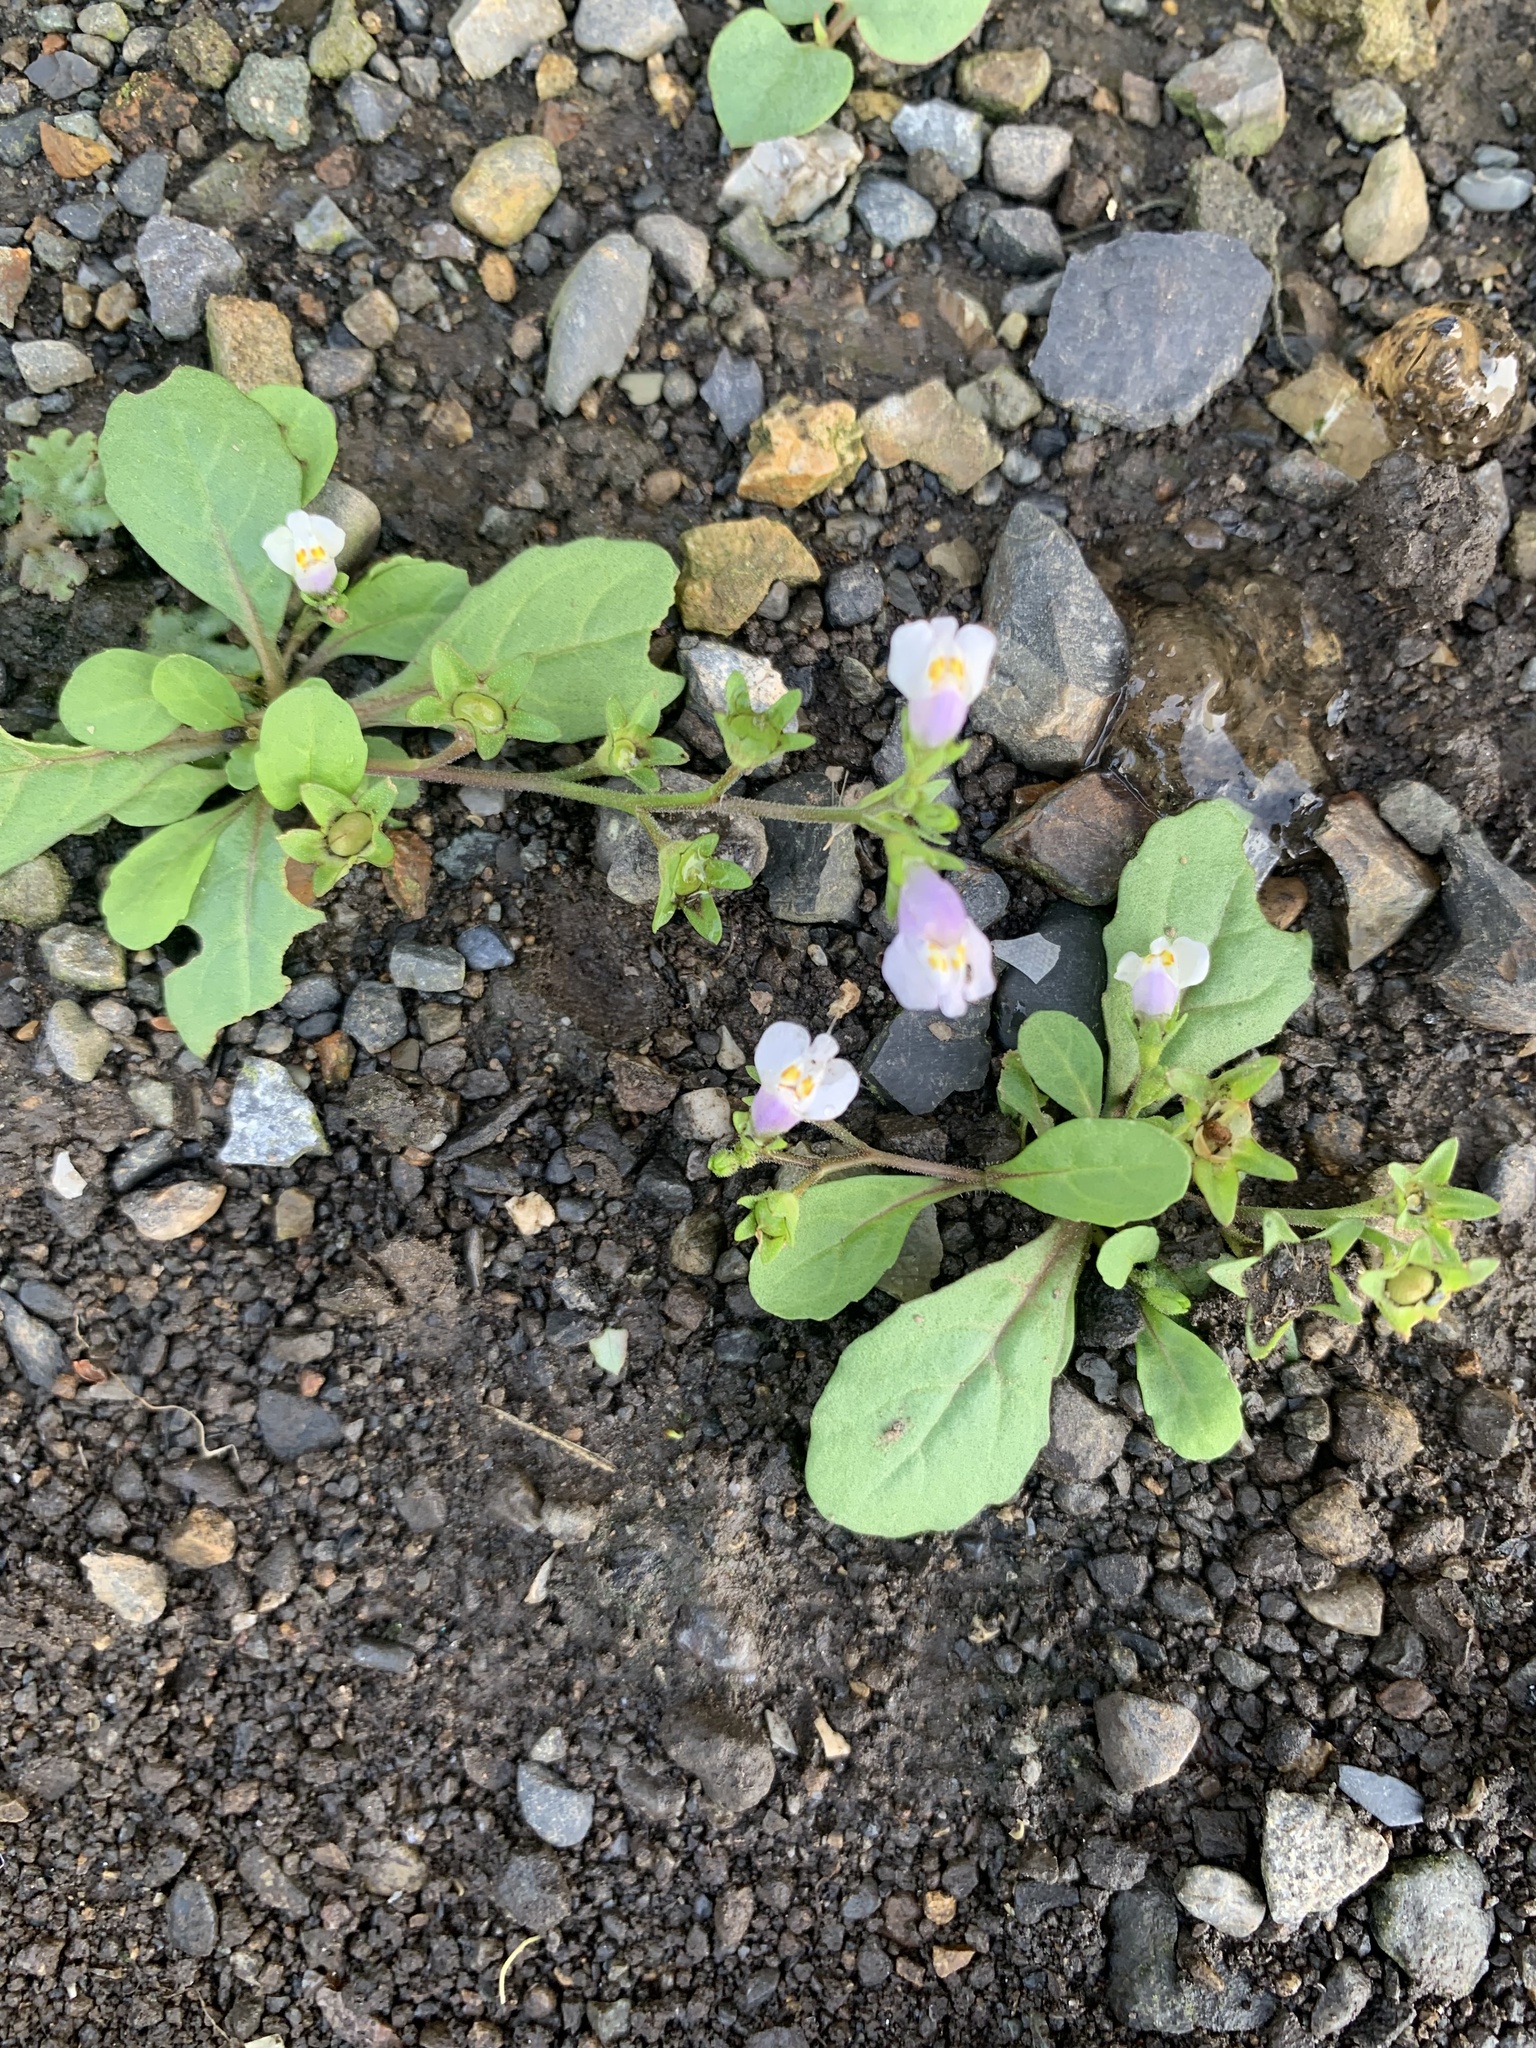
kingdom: Plantae
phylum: Tracheophyta
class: Magnoliopsida
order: Lamiales
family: Mazaceae
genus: Mazus
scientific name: Mazus pumilus
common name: Japanese mazus
